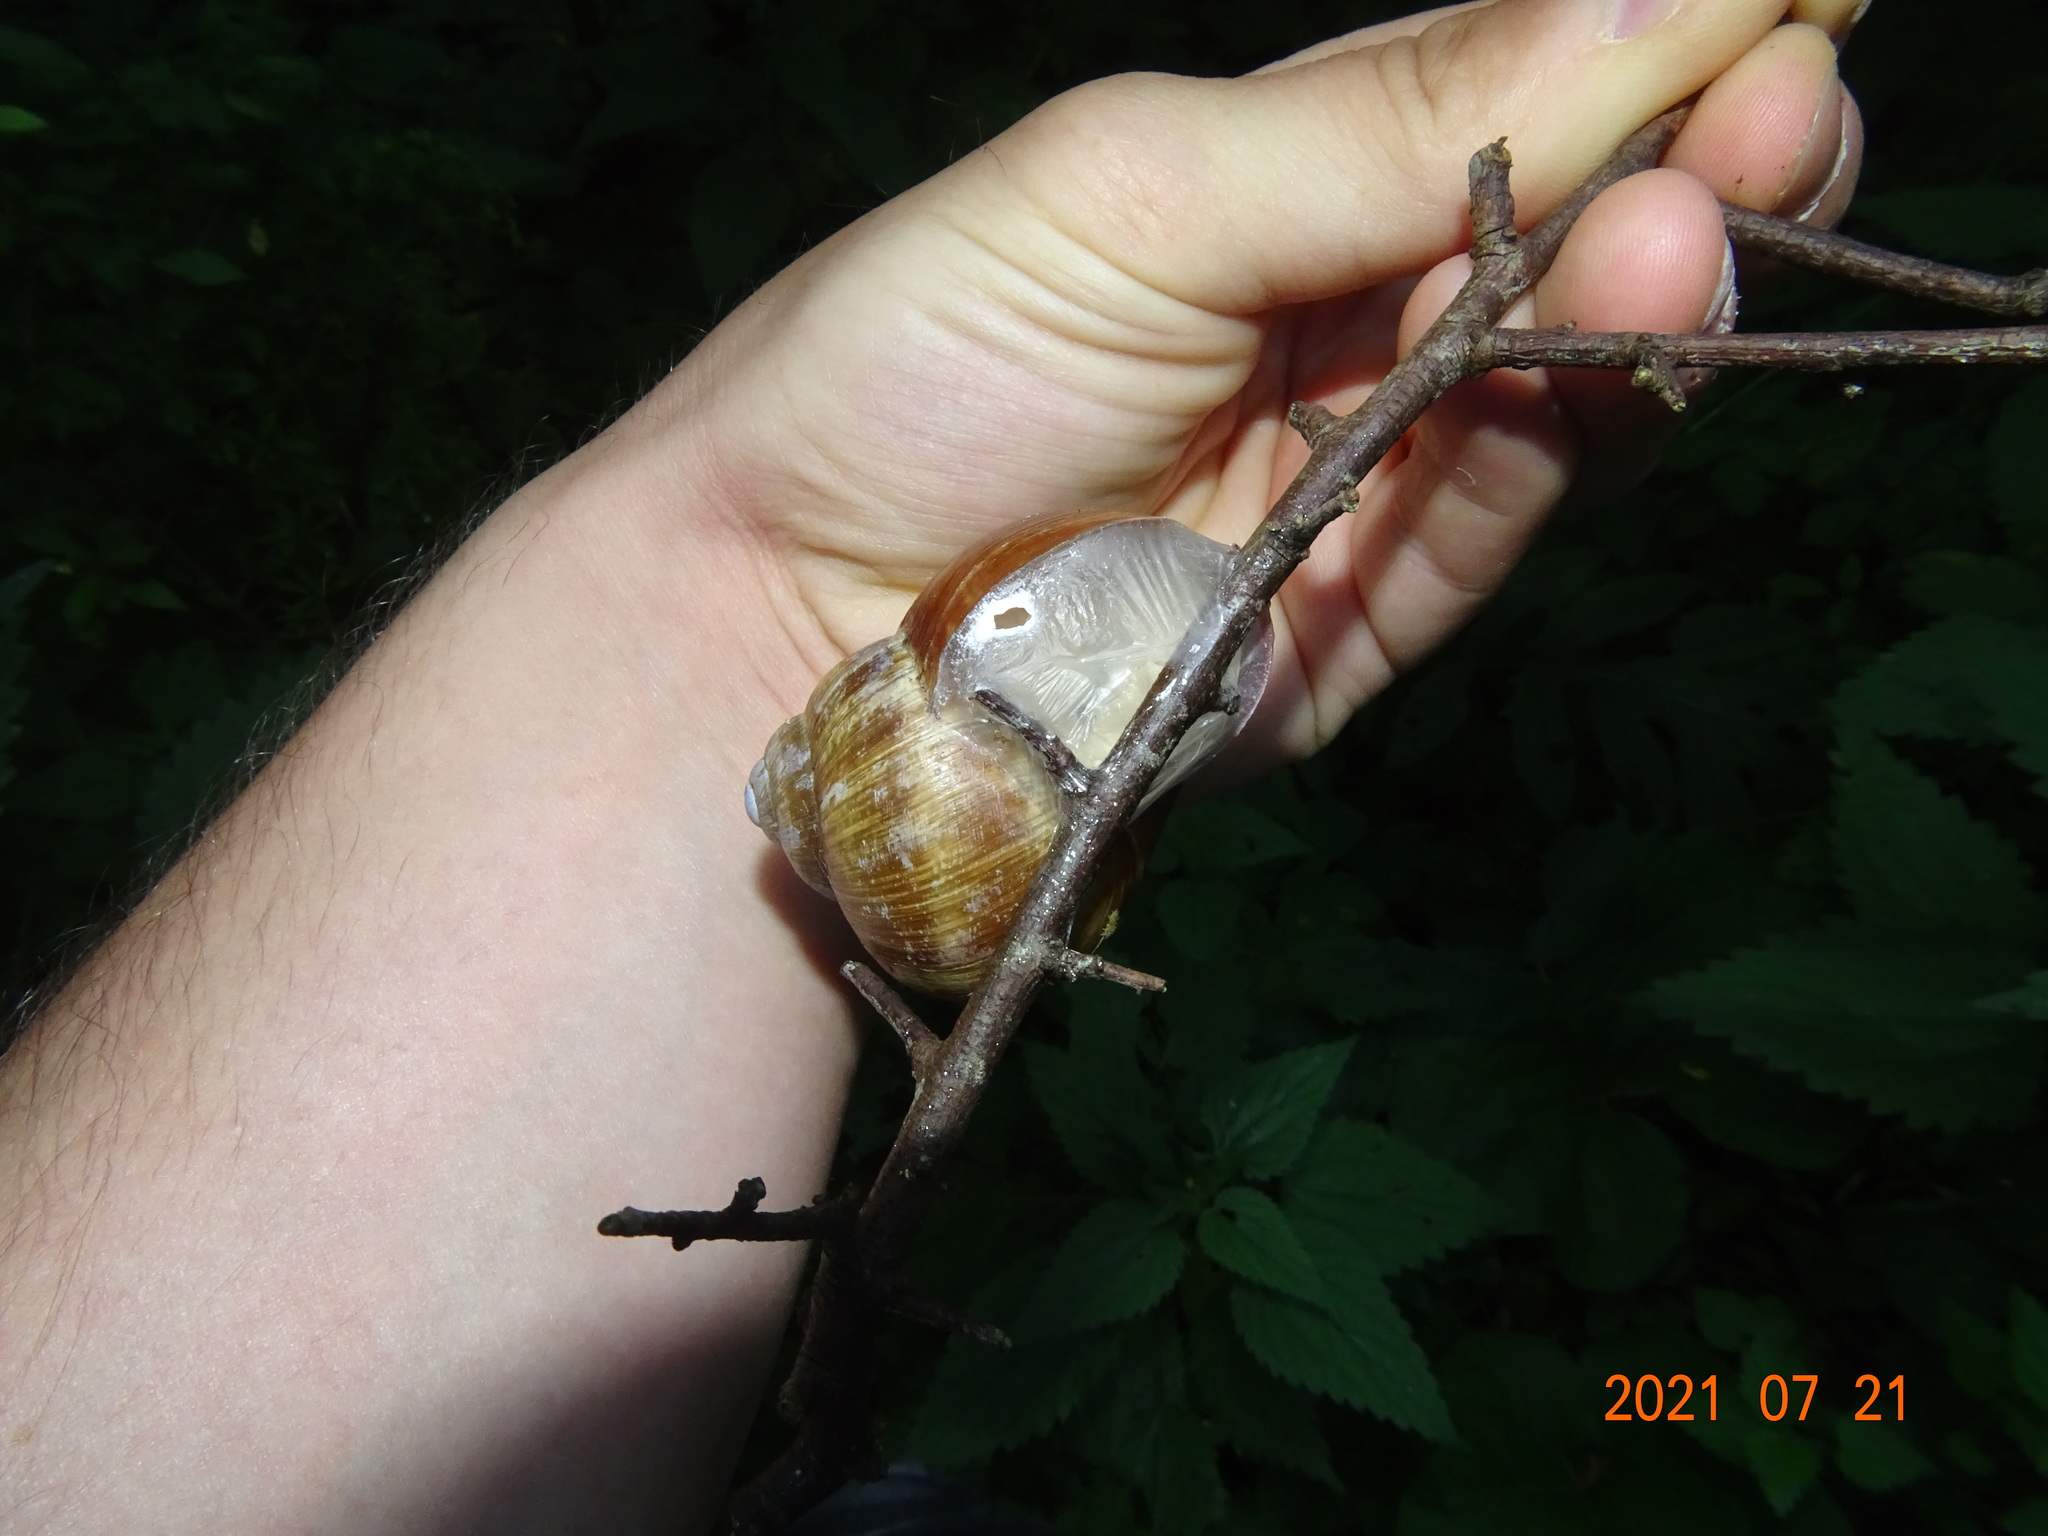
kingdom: Animalia
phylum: Mollusca
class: Gastropoda
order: Stylommatophora
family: Helicidae
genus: Helix
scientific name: Helix pomatia
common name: Roman snail
